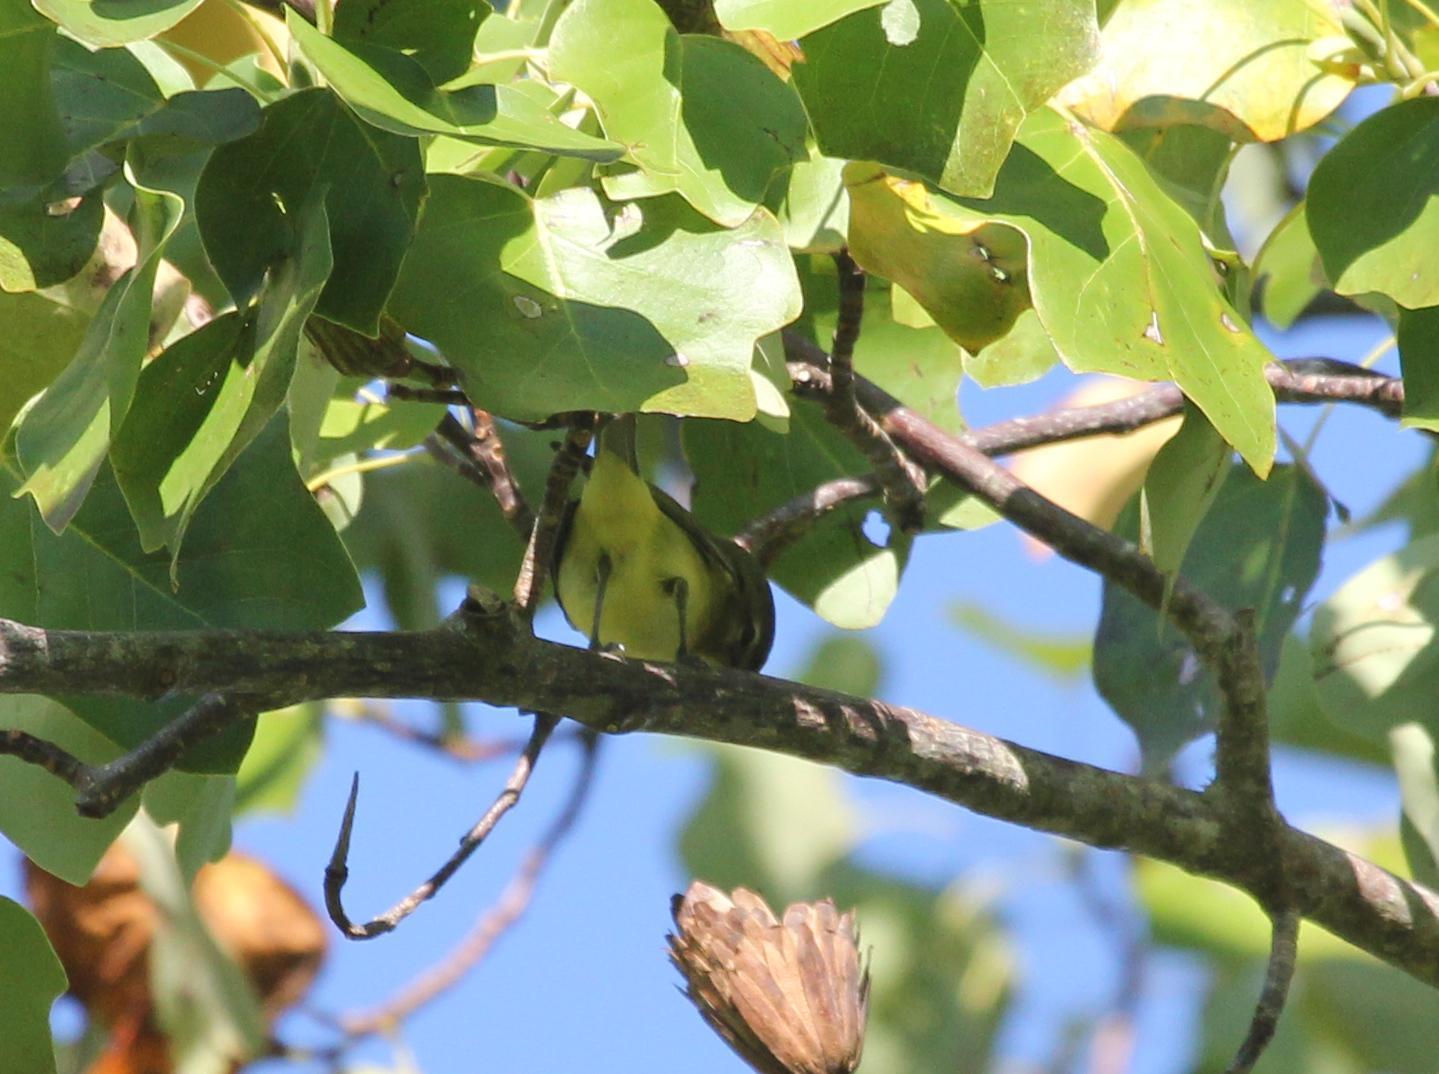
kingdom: Animalia
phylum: Chordata
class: Aves
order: Passeriformes
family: Vireonidae
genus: Vireo
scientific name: Vireo philadelphicus
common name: Philadelphia vireo
